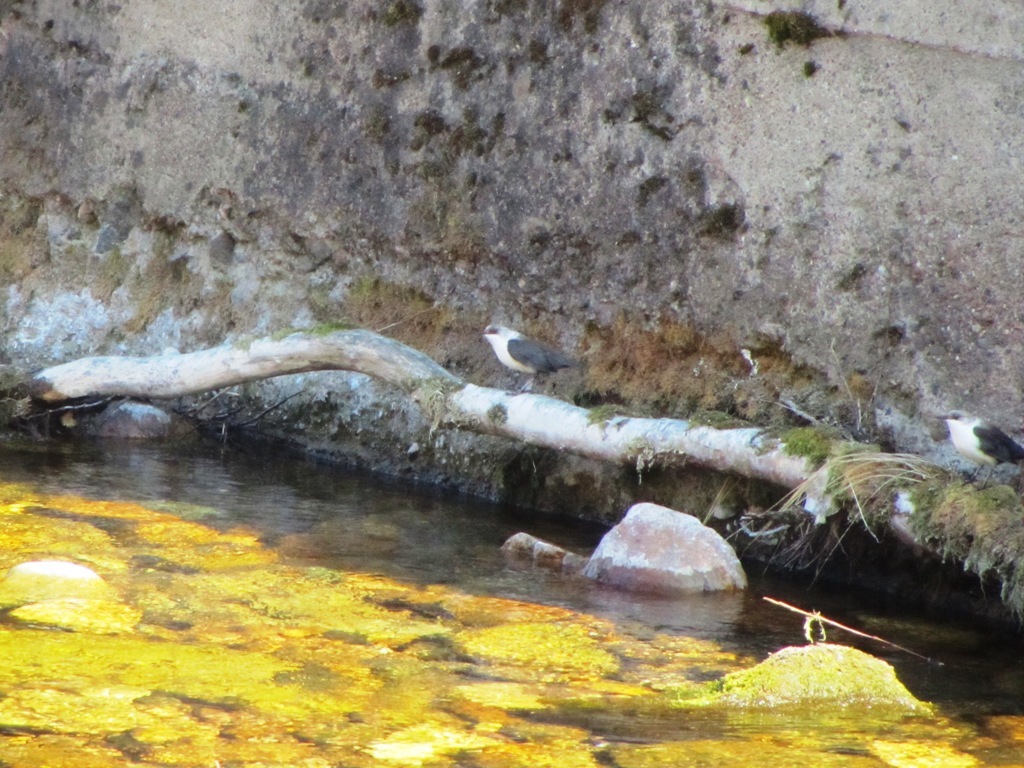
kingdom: Animalia
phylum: Chordata
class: Aves
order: Passeriformes
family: Cinclidae
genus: Cinclus
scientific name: Cinclus cinclus
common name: White-throated dipper
